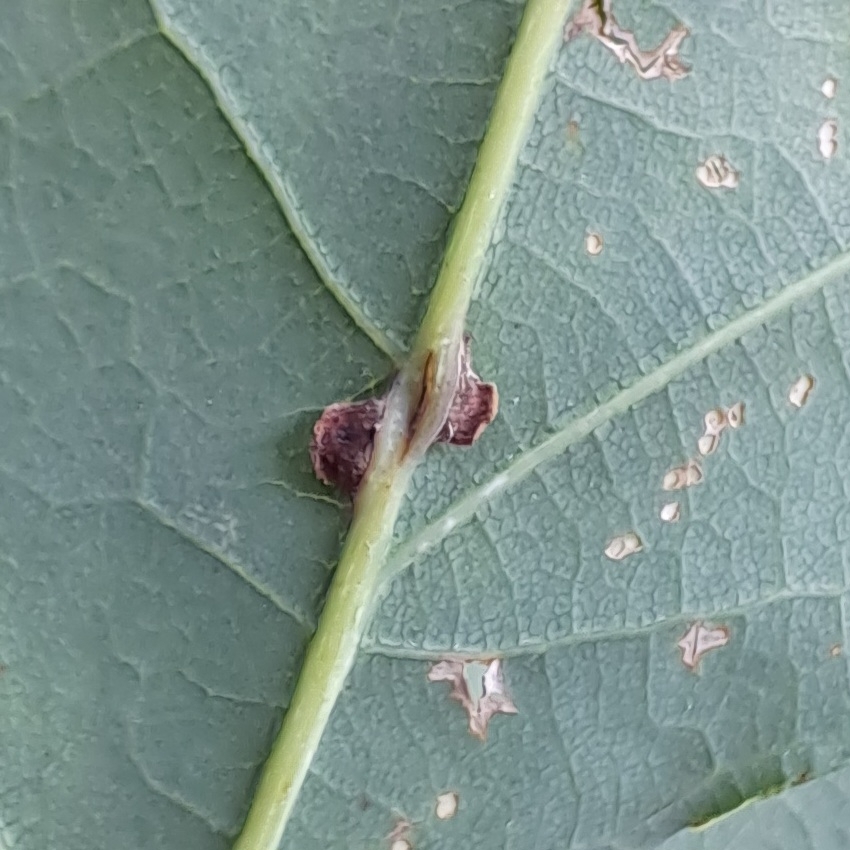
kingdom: Animalia
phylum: Arthropoda
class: Insecta
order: Hymenoptera
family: Cynipidae
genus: Neuroterus
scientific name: Neuroterus anthracinus
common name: Oyster gall
